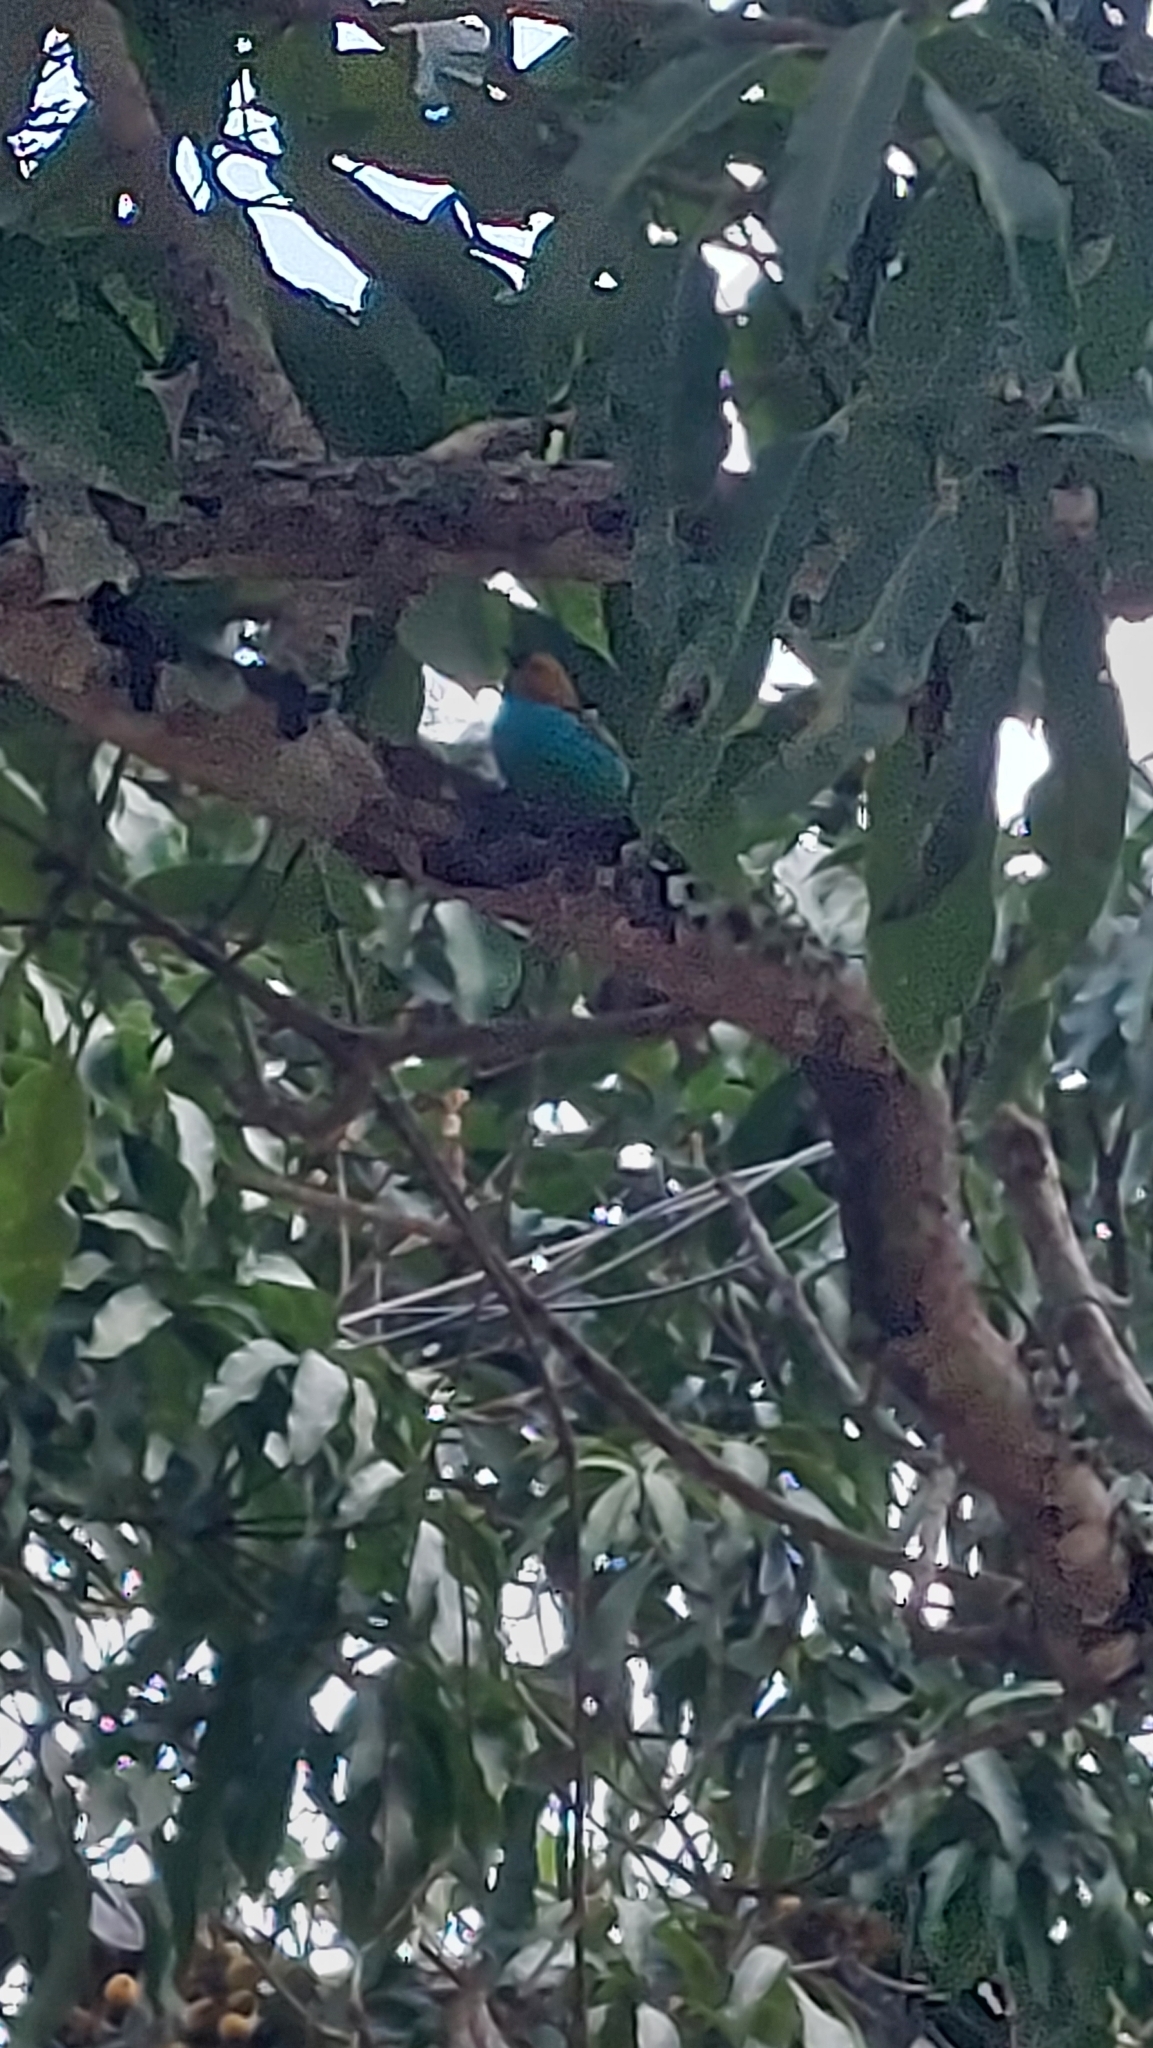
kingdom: Animalia
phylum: Chordata
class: Aves
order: Passeriformes
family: Thraupidae
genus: Tangara
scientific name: Tangara cyanoventris
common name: Gilt-edged tanager
